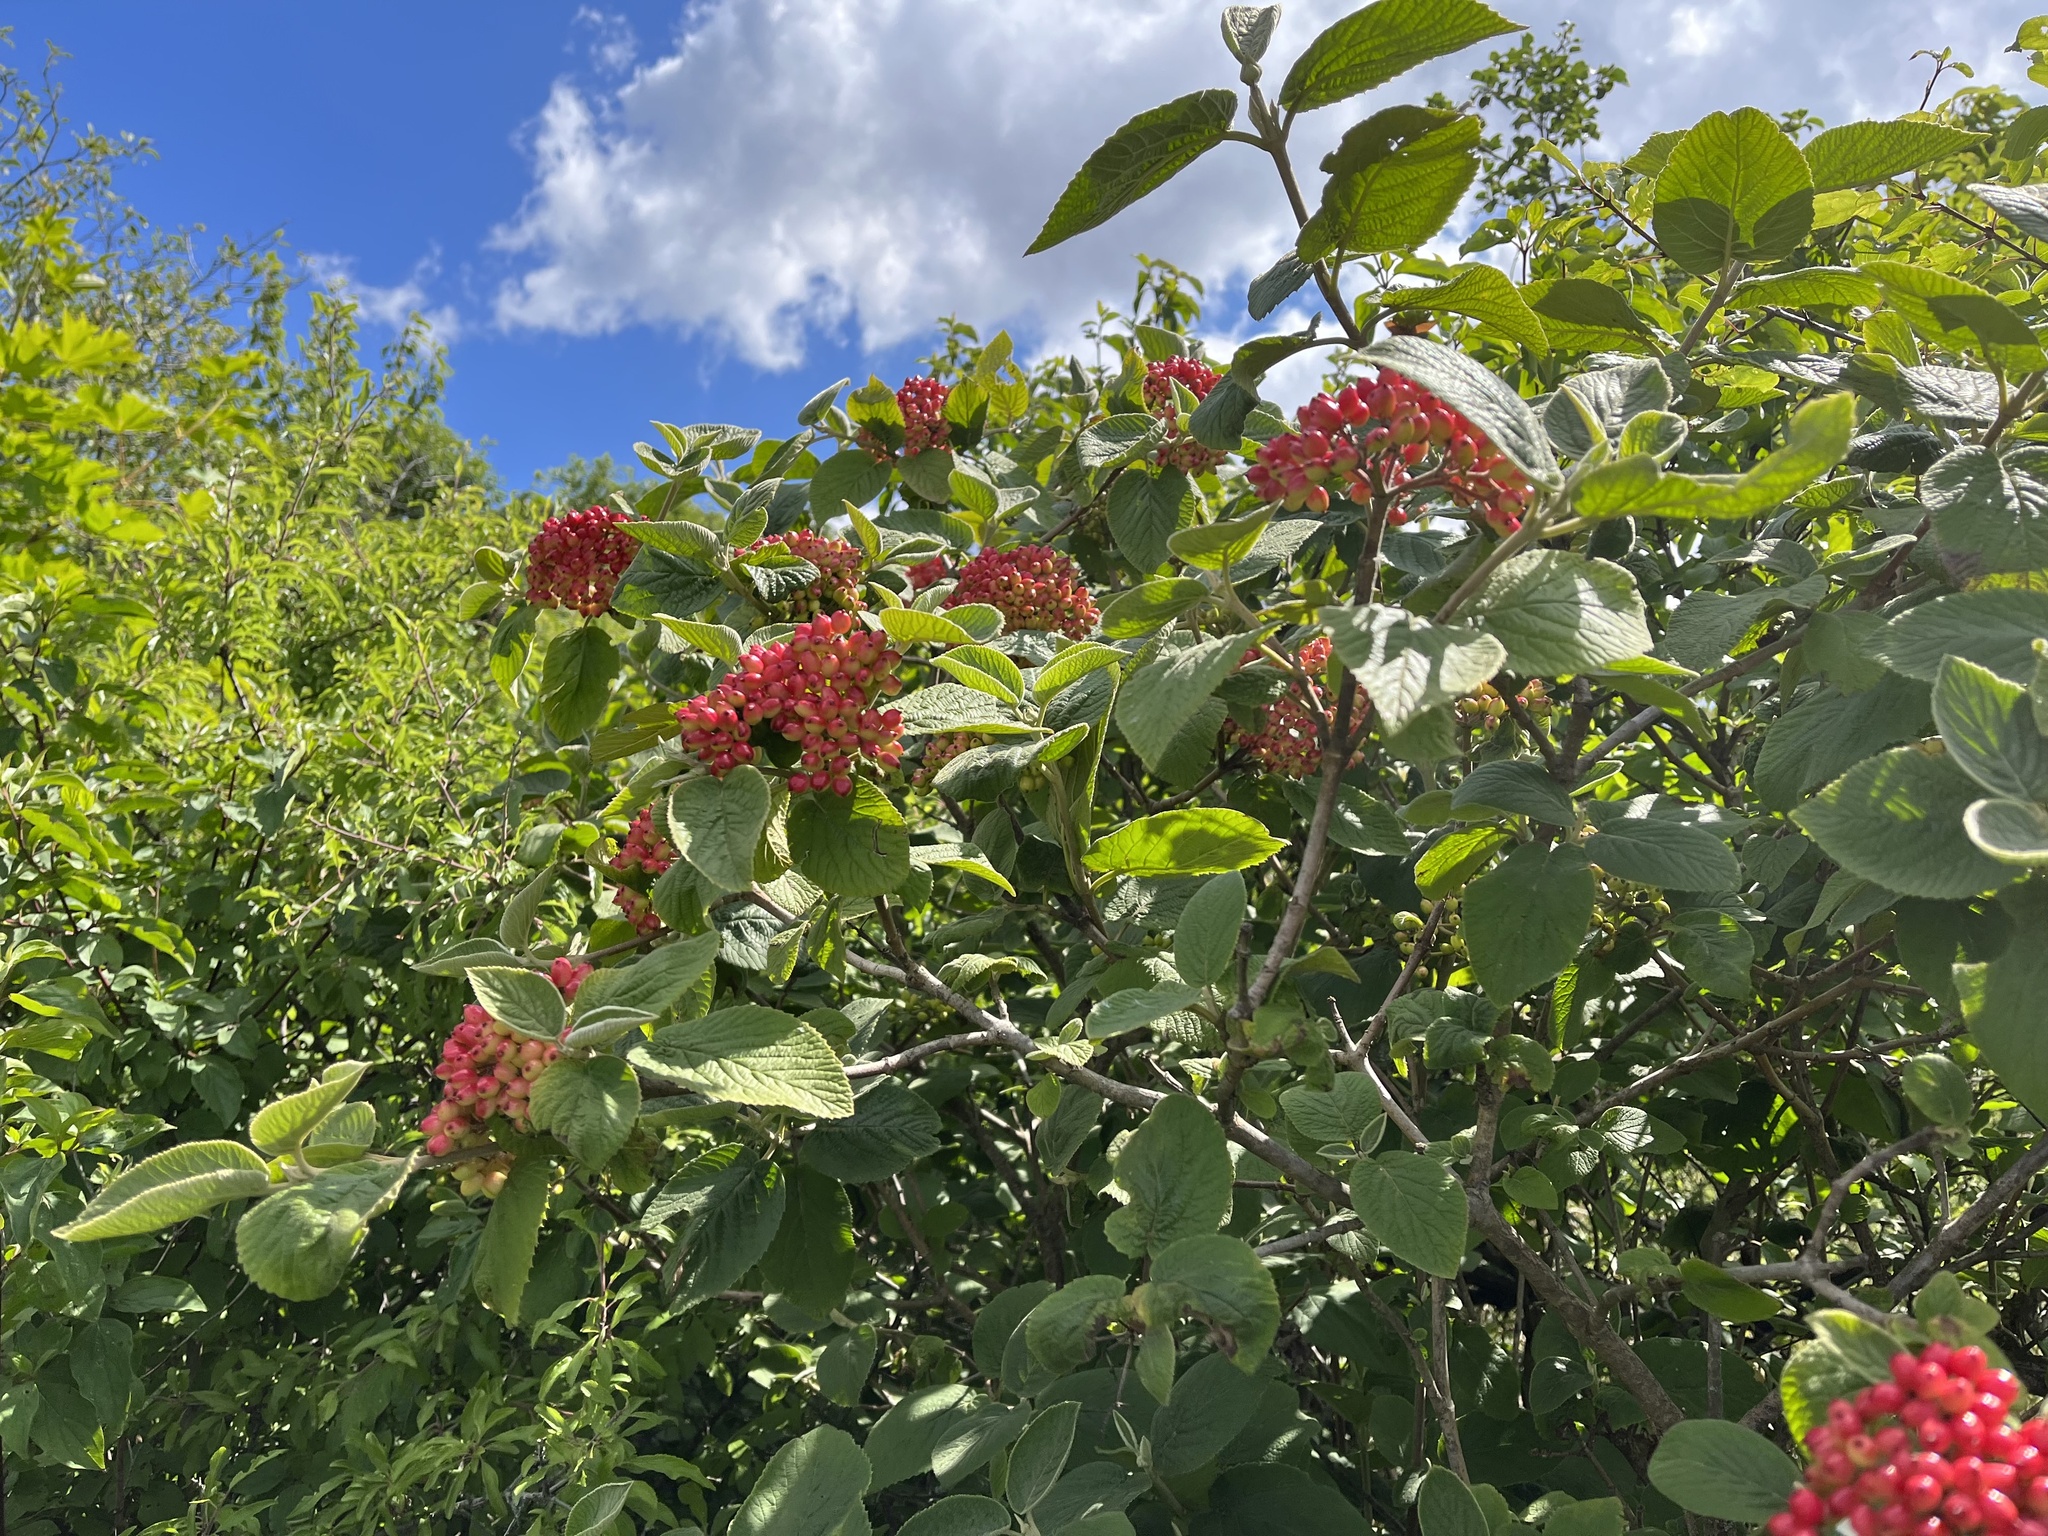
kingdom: Plantae
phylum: Tracheophyta
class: Magnoliopsida
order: Dipsacales
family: Viburnaceae
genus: Viburnum
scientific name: Viburnum lantana
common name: Wayfaring tree
